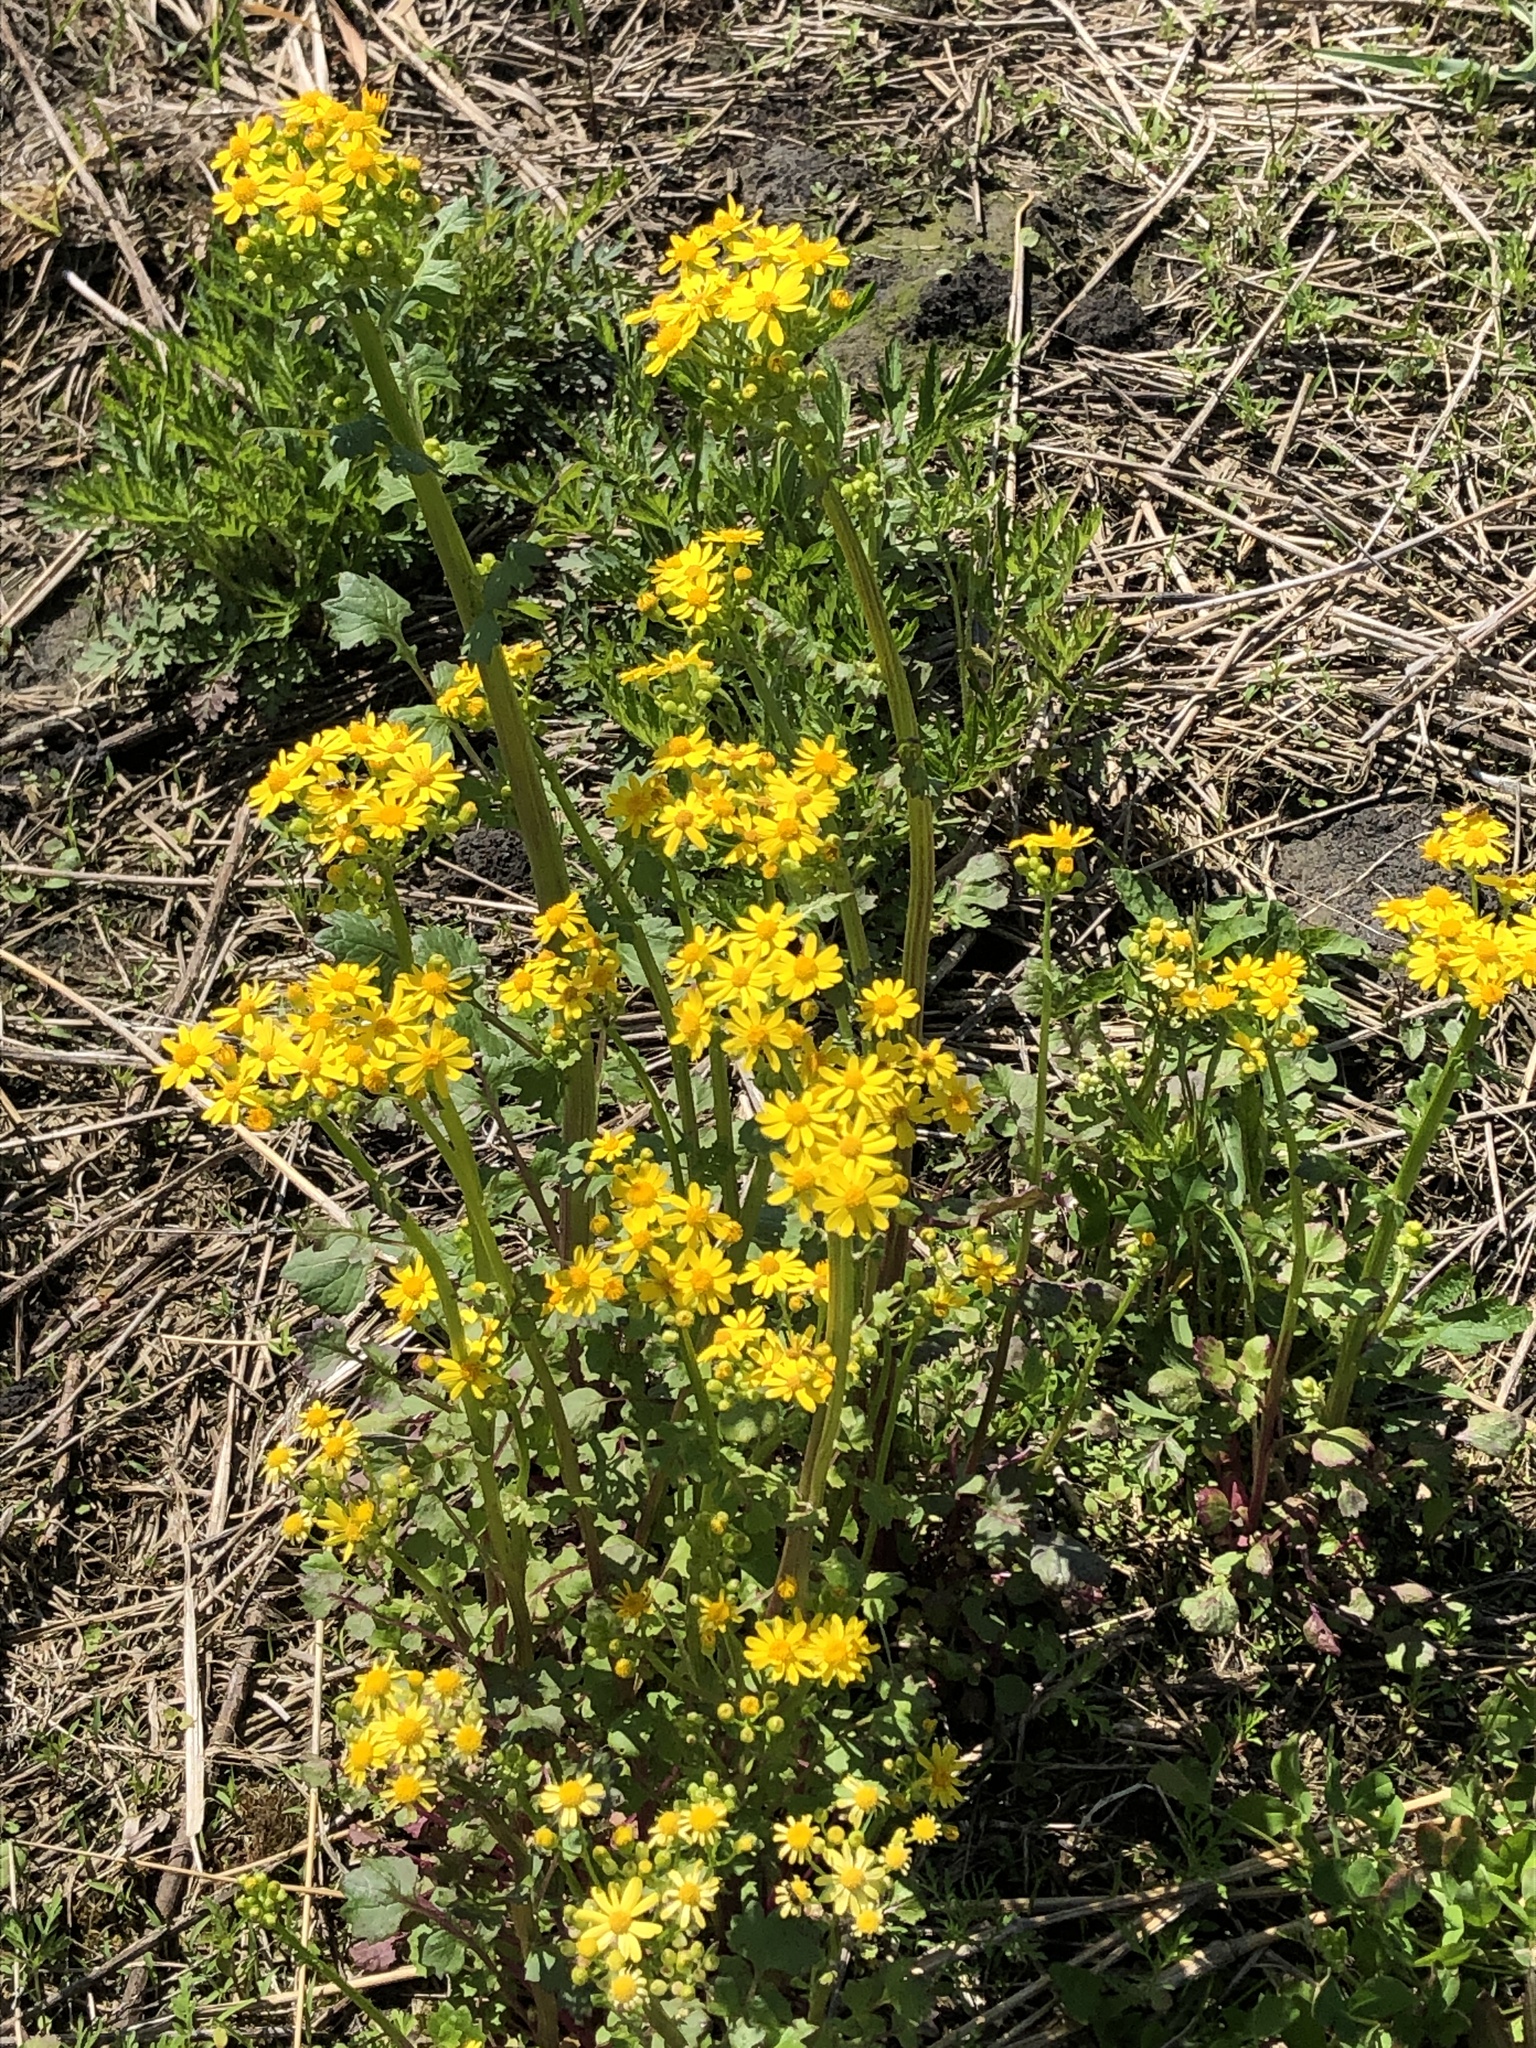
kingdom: Plantae
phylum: Tracheophyta
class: Magnoliopsida
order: Asterales
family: Asteraceae
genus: Packera
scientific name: Packera glabella
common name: Butterweed
